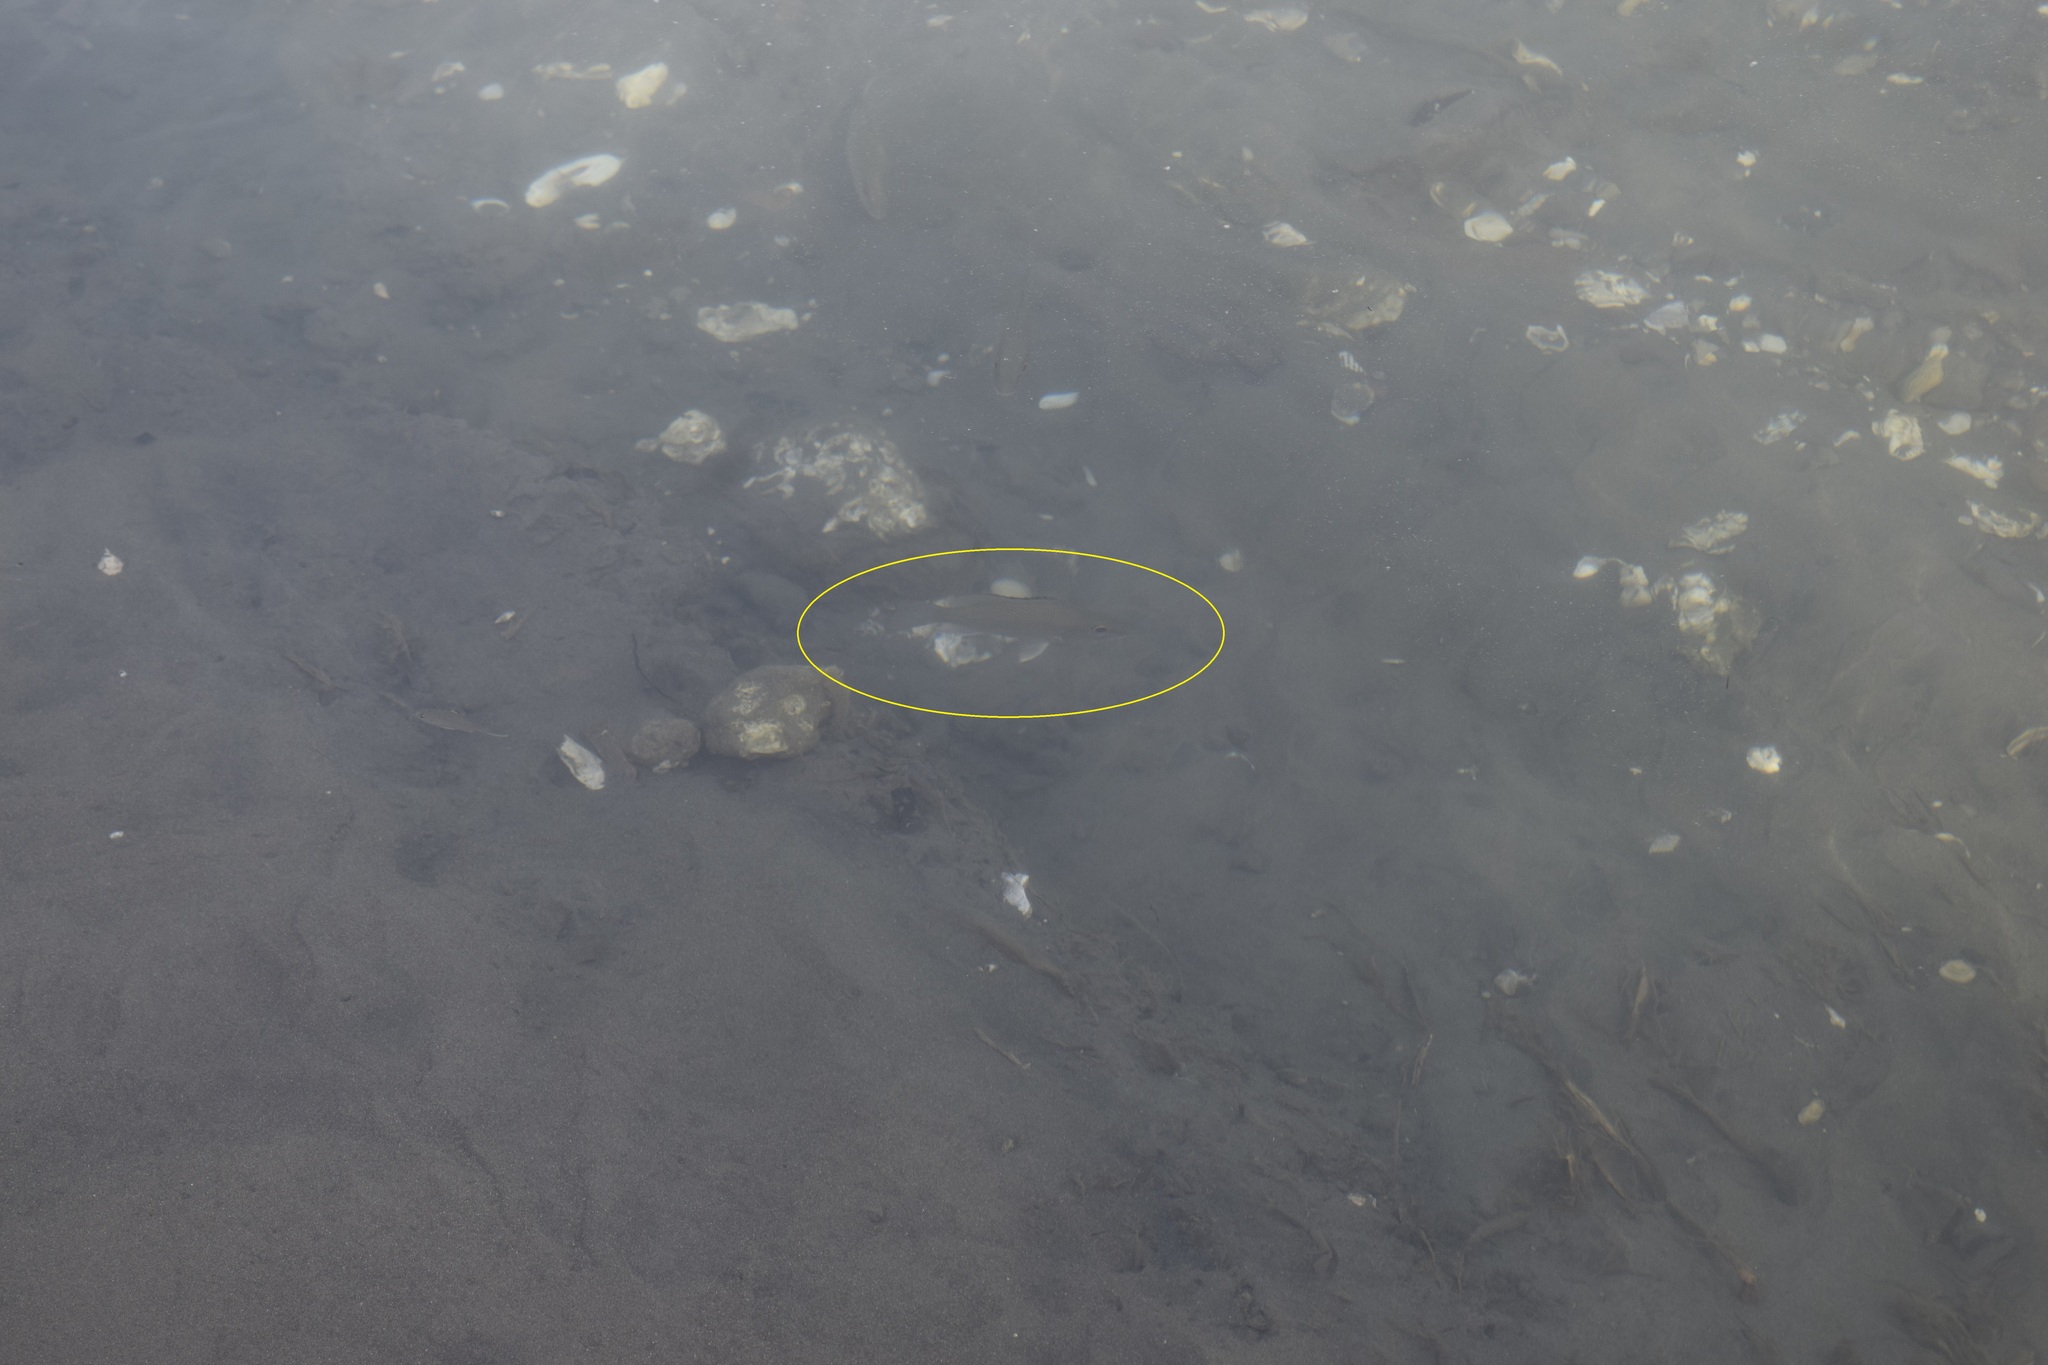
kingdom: Animalia
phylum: Chordata
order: Perciformes
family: Lutjanidae
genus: Lutjanus
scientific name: Lutjanus griseus
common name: Gray snapper
